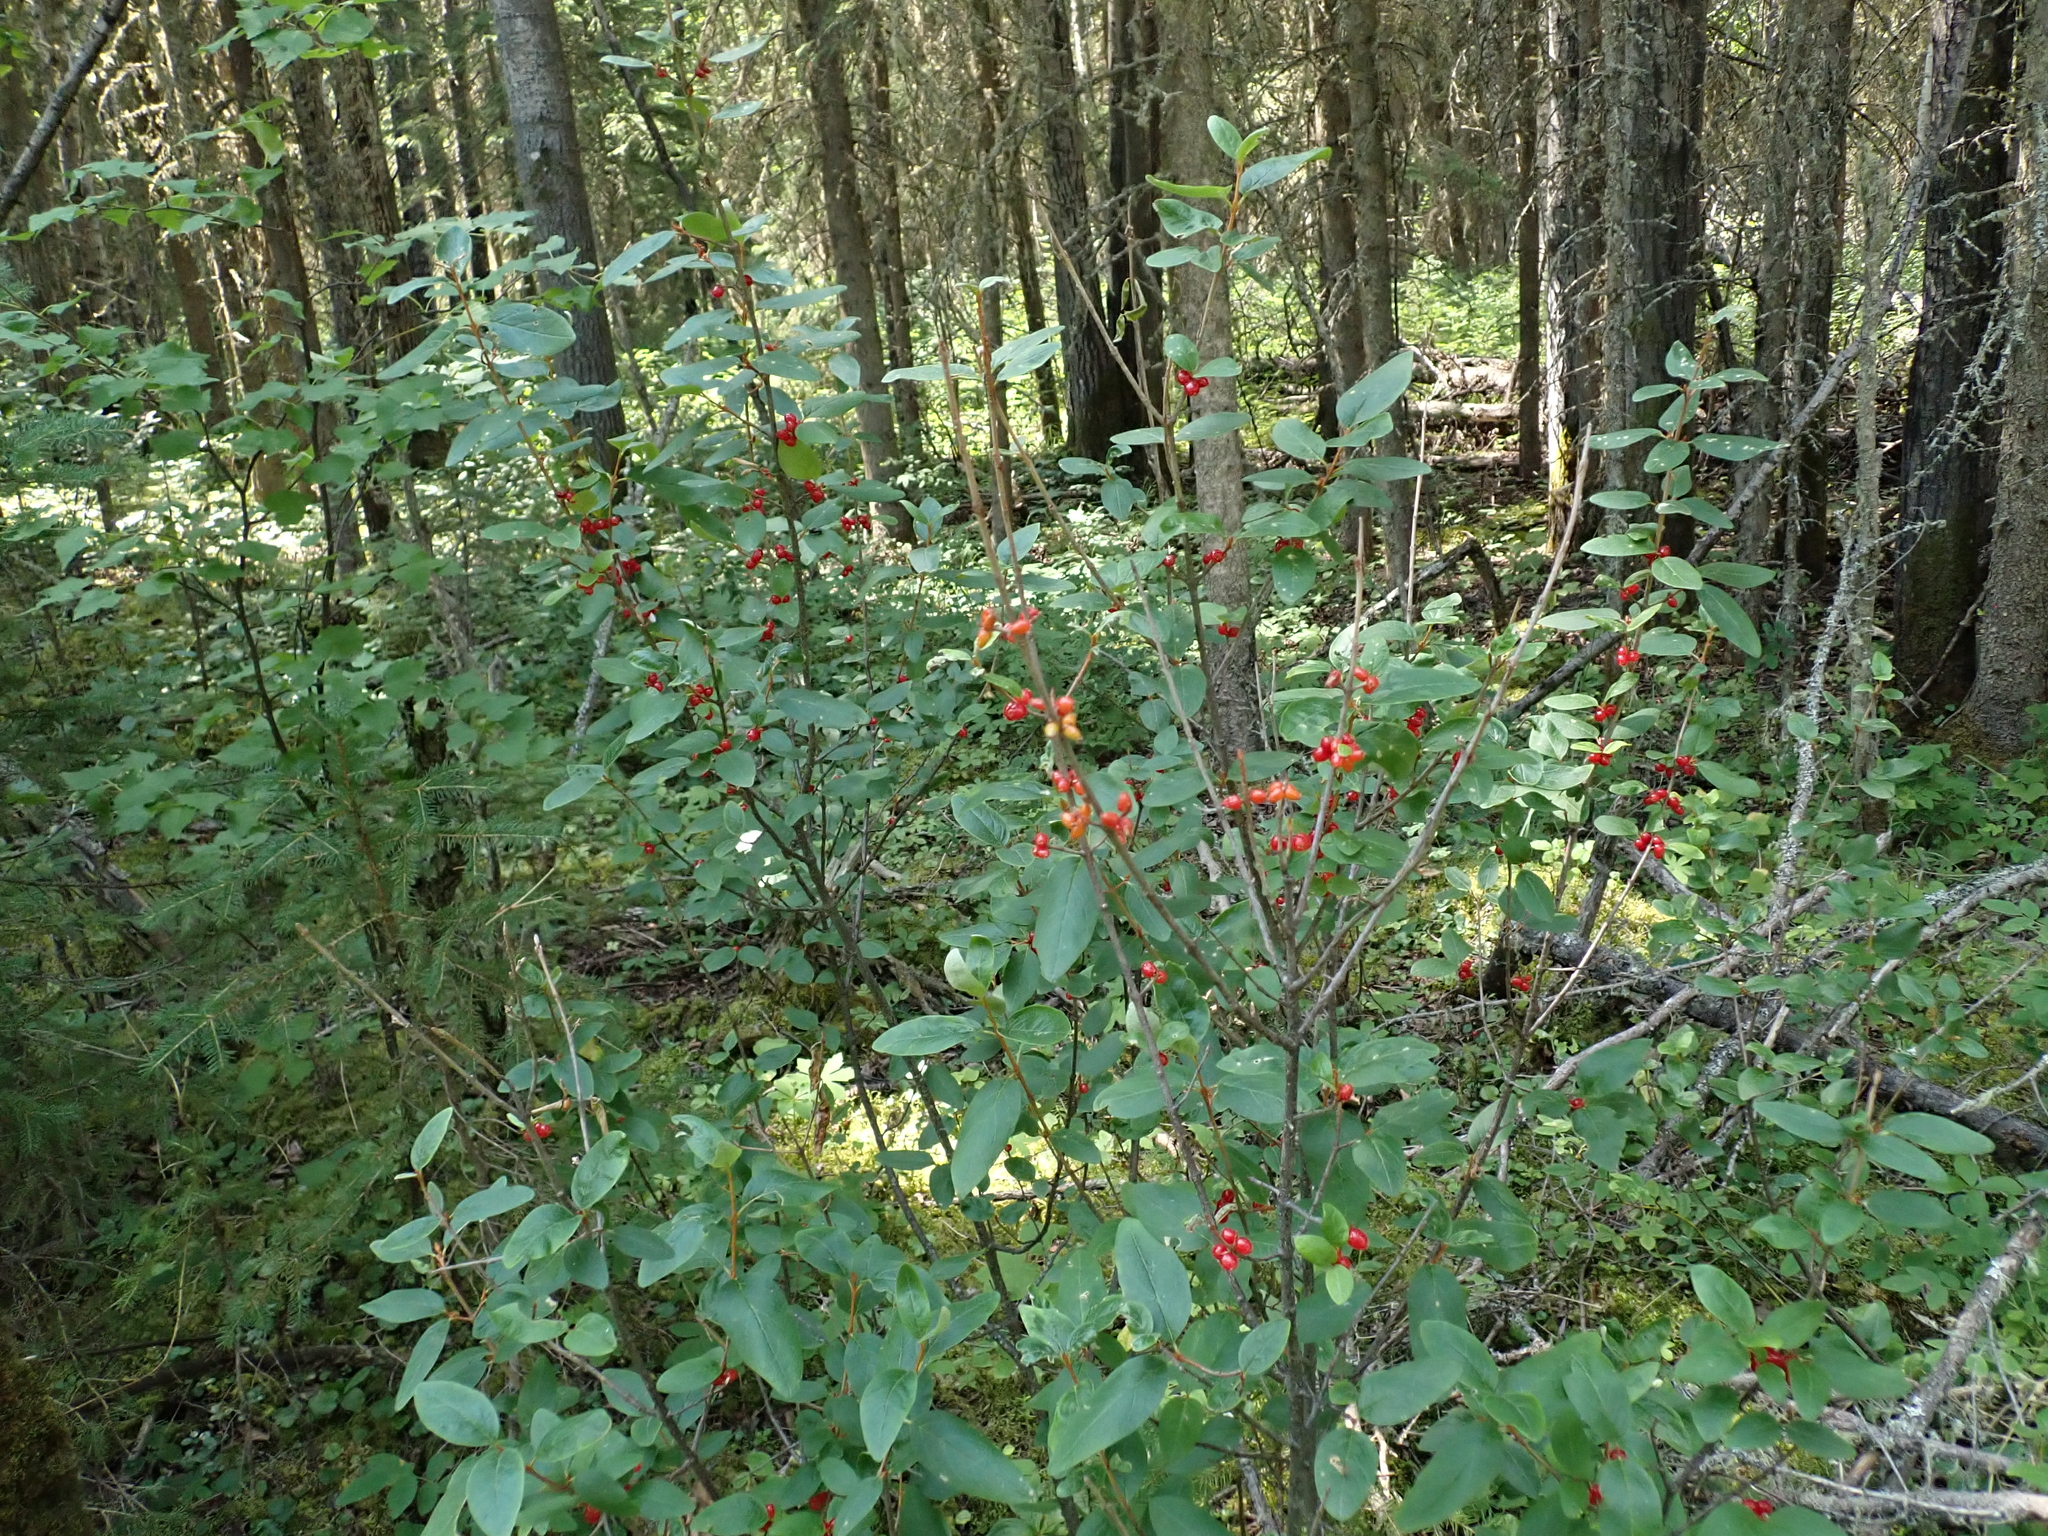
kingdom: Plantae
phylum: Tracheophyta
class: Magnoliopsida
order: Rosales
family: Elaeagnaceae
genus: Shepherdia
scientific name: Shepherdia canadensis
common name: Soapberry
